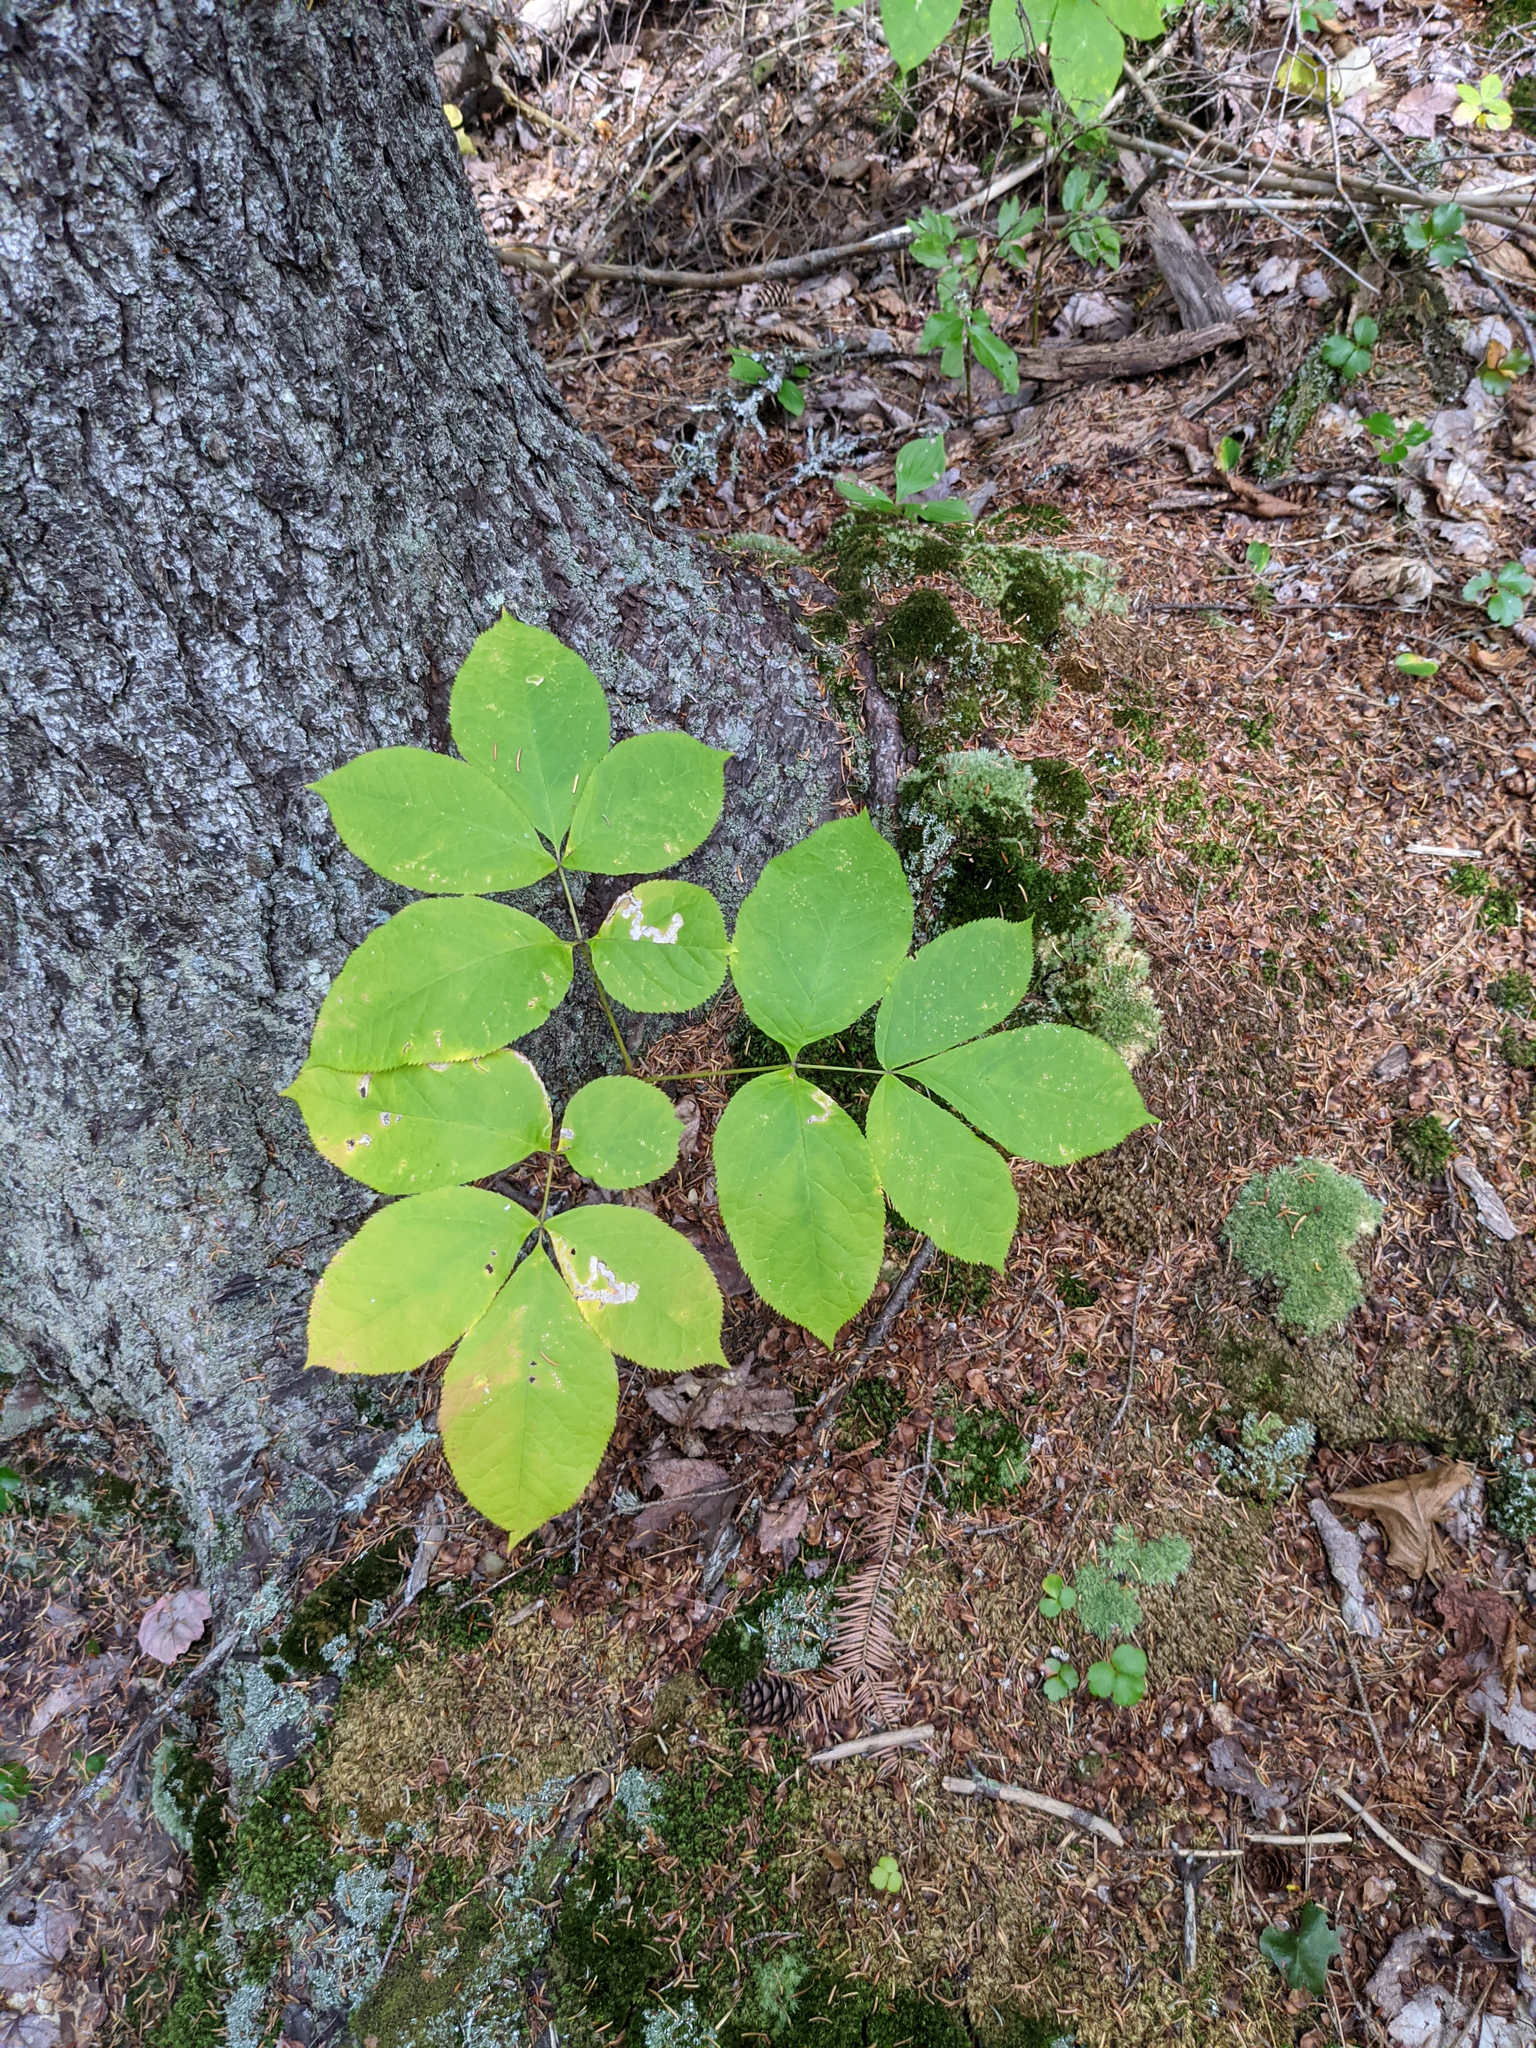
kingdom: Plantae
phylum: Tracheophyta
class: Magnoliopsida
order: Apiales
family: Araliaceae
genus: Aralia
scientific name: Aralia nudicaulis
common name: Wild sarsaparilla
